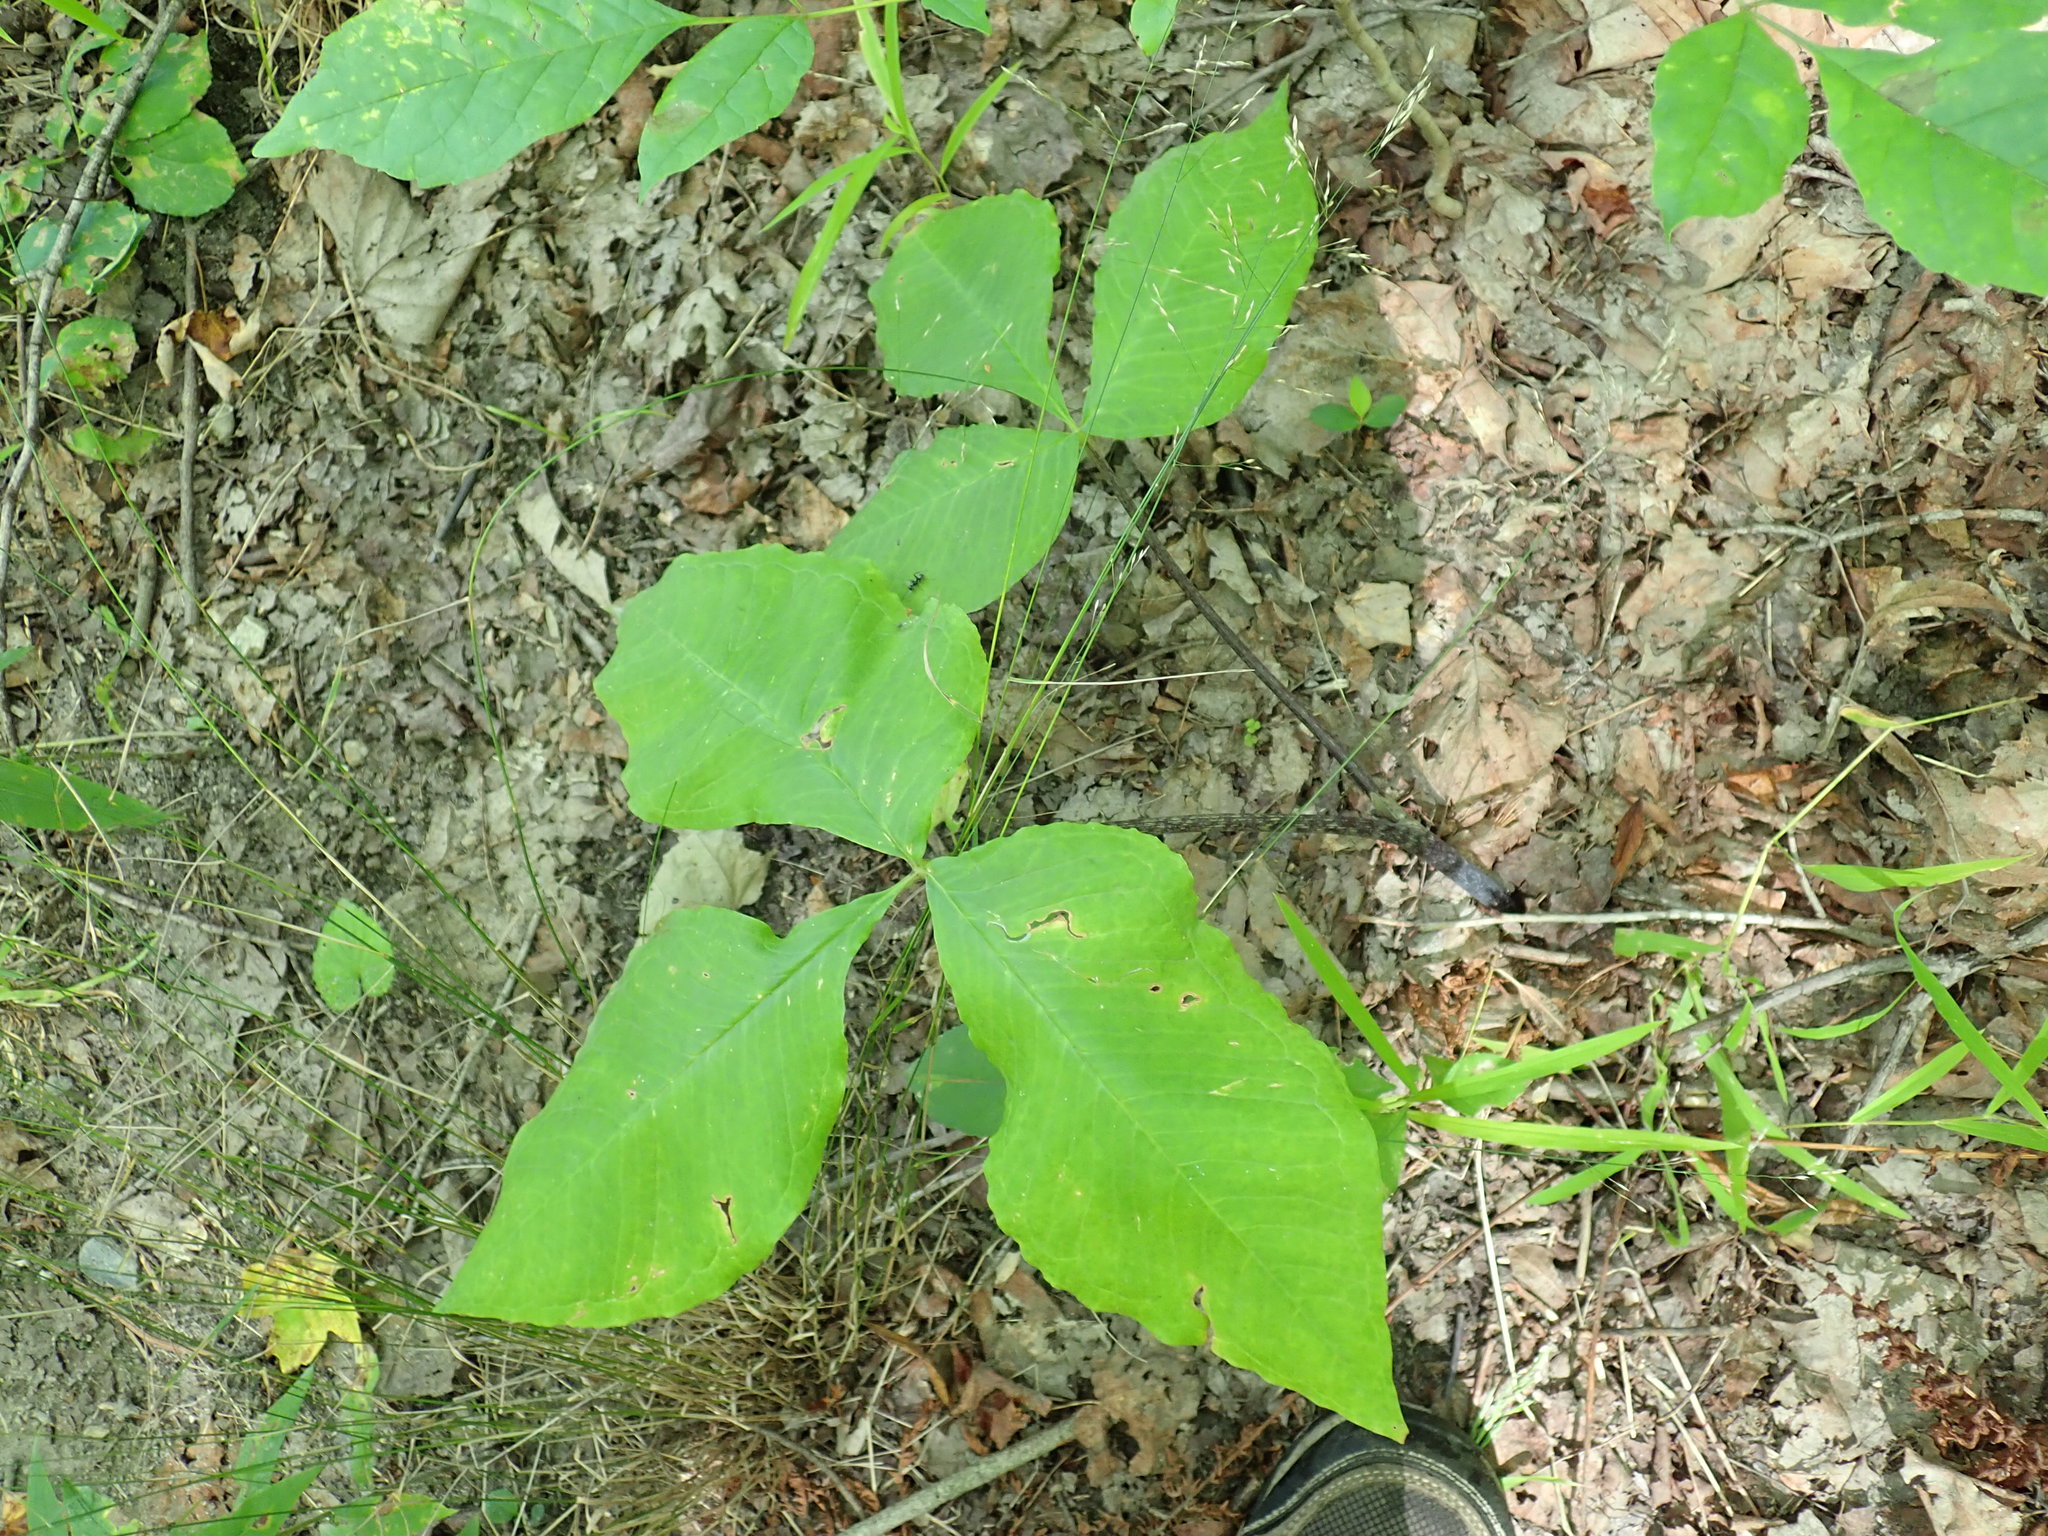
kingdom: Plantae
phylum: Tracheophyta
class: Liliopsida
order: Alismatales
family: Araceae
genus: Arisaema
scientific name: Arisaema triphyllum
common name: Jack-in-the-pulpit
